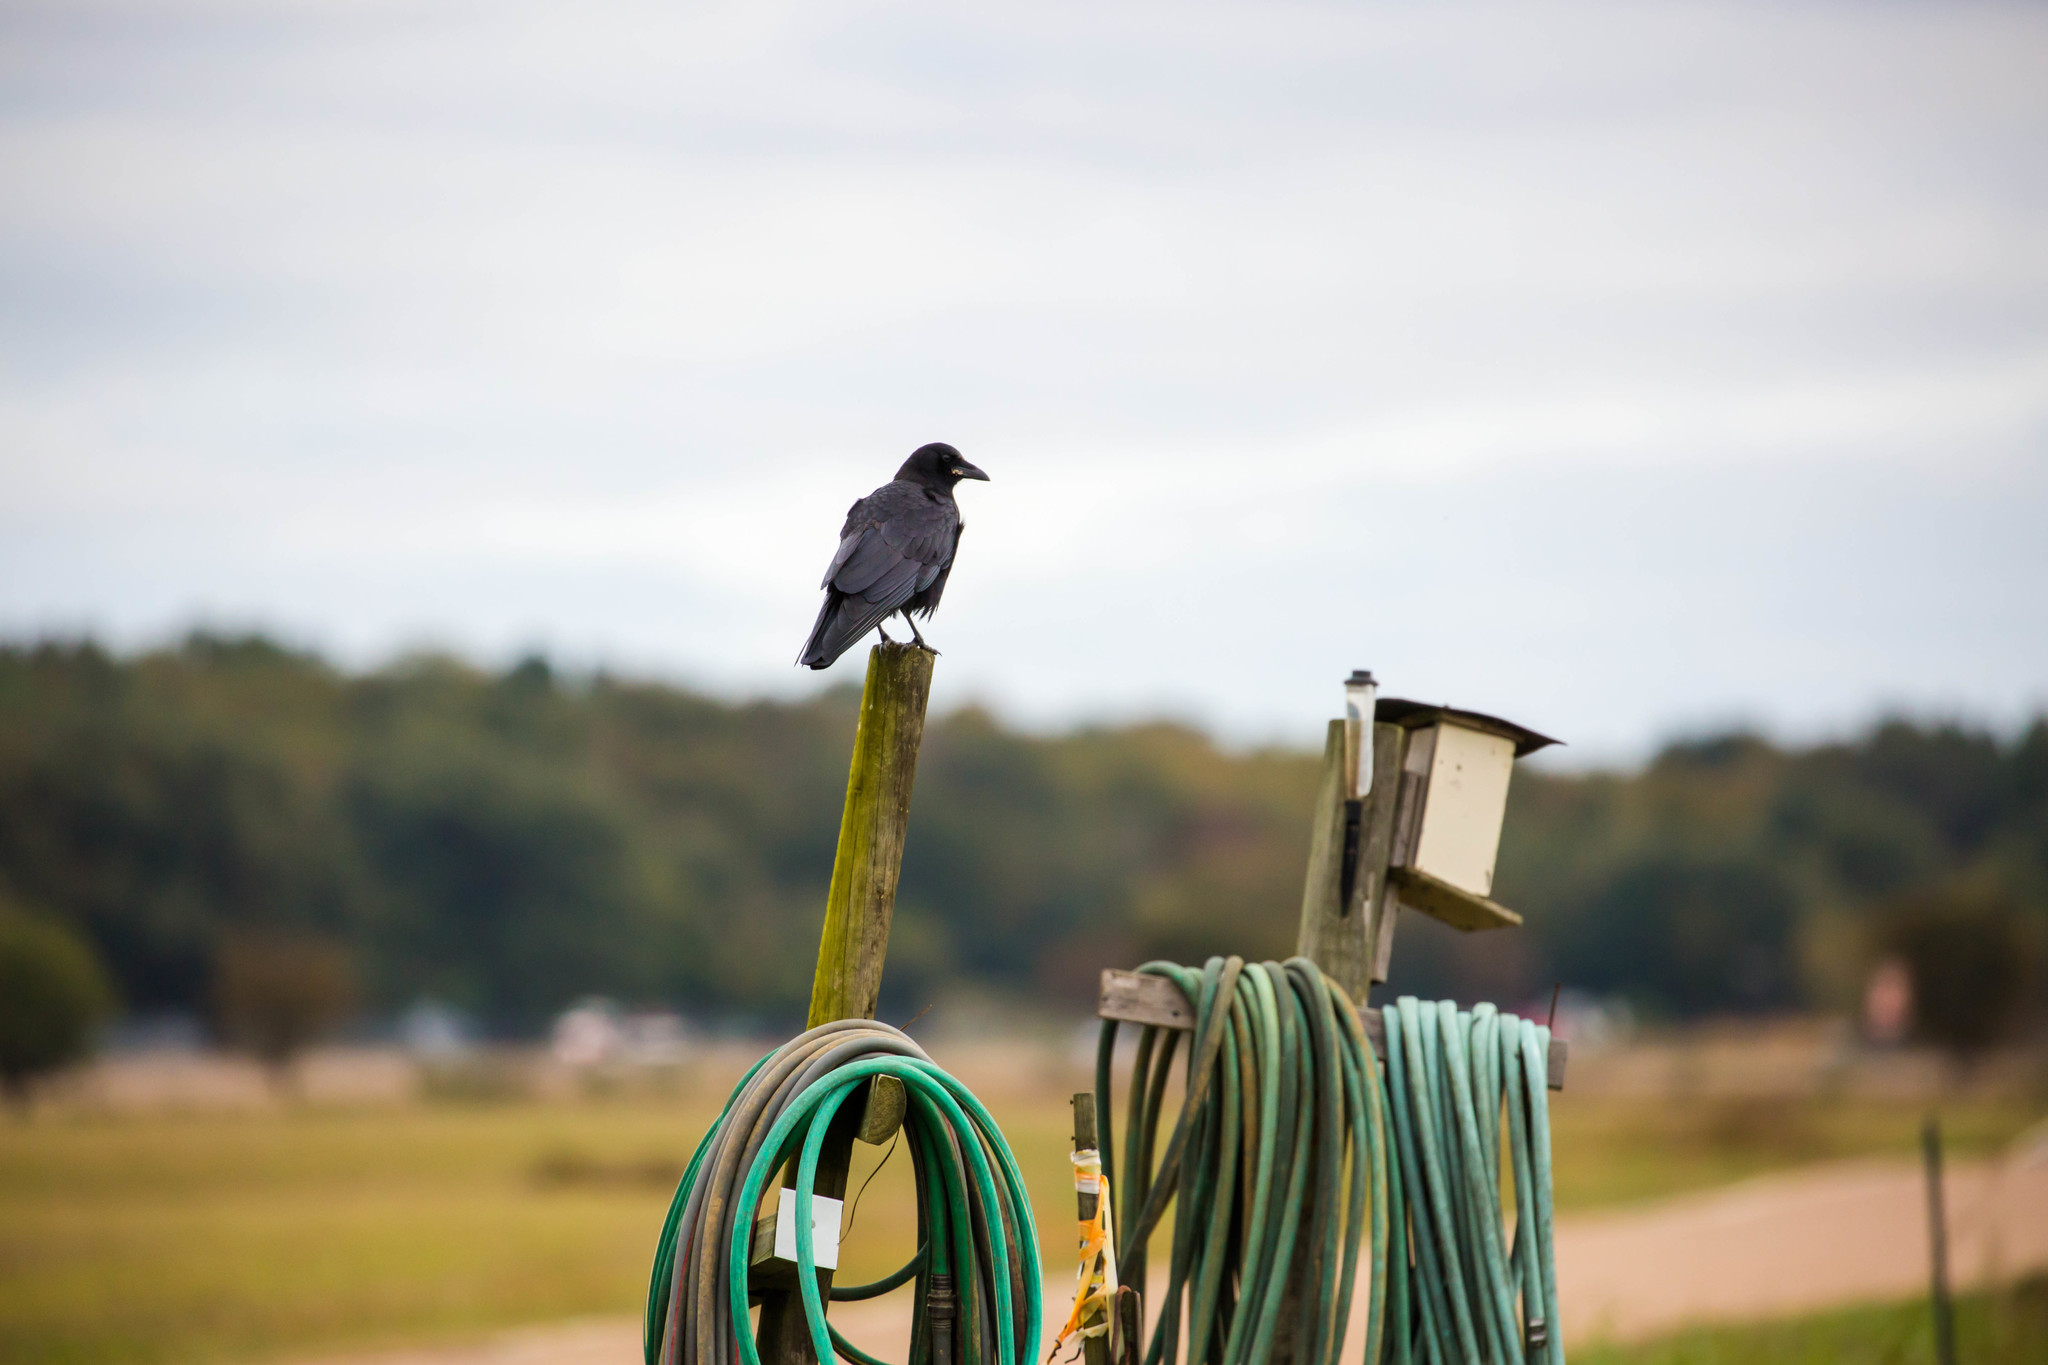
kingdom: Animalia
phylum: Chordata
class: Aves
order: Passeriformes
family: Corvidae
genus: Corvus
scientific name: Corvus brachyrhynchos
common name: American crow
